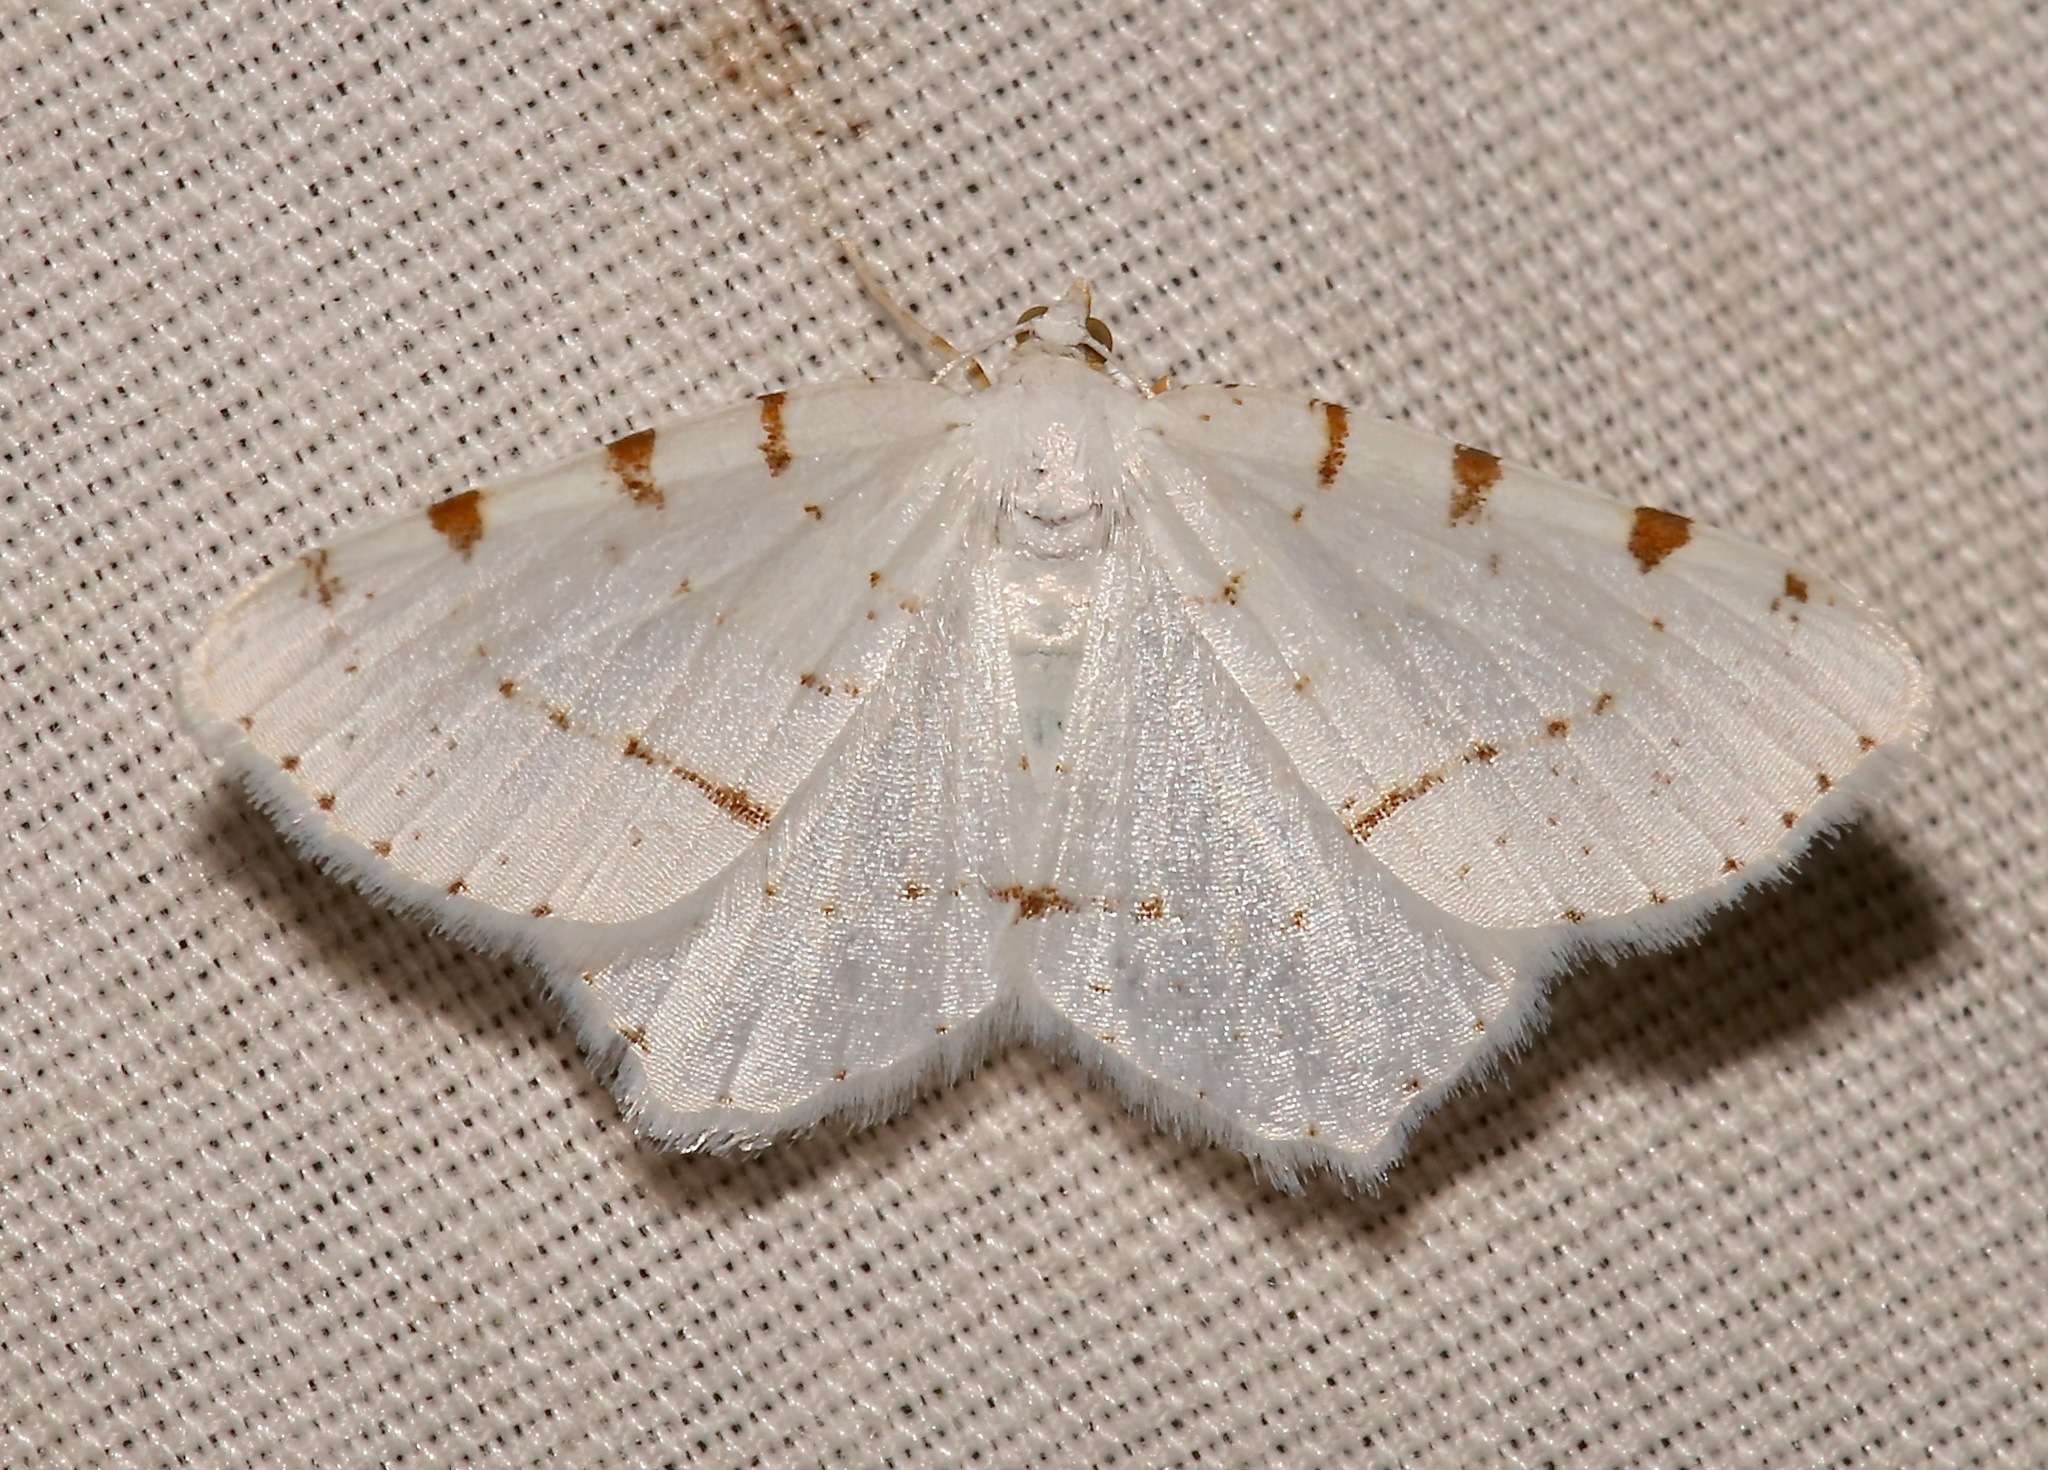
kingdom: Animalia
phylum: Arthropoda
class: Insecta
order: Lepidoptera
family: Geometridae
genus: Macaria
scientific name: Macaria pustularia
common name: Lesser maple spanworm moth
